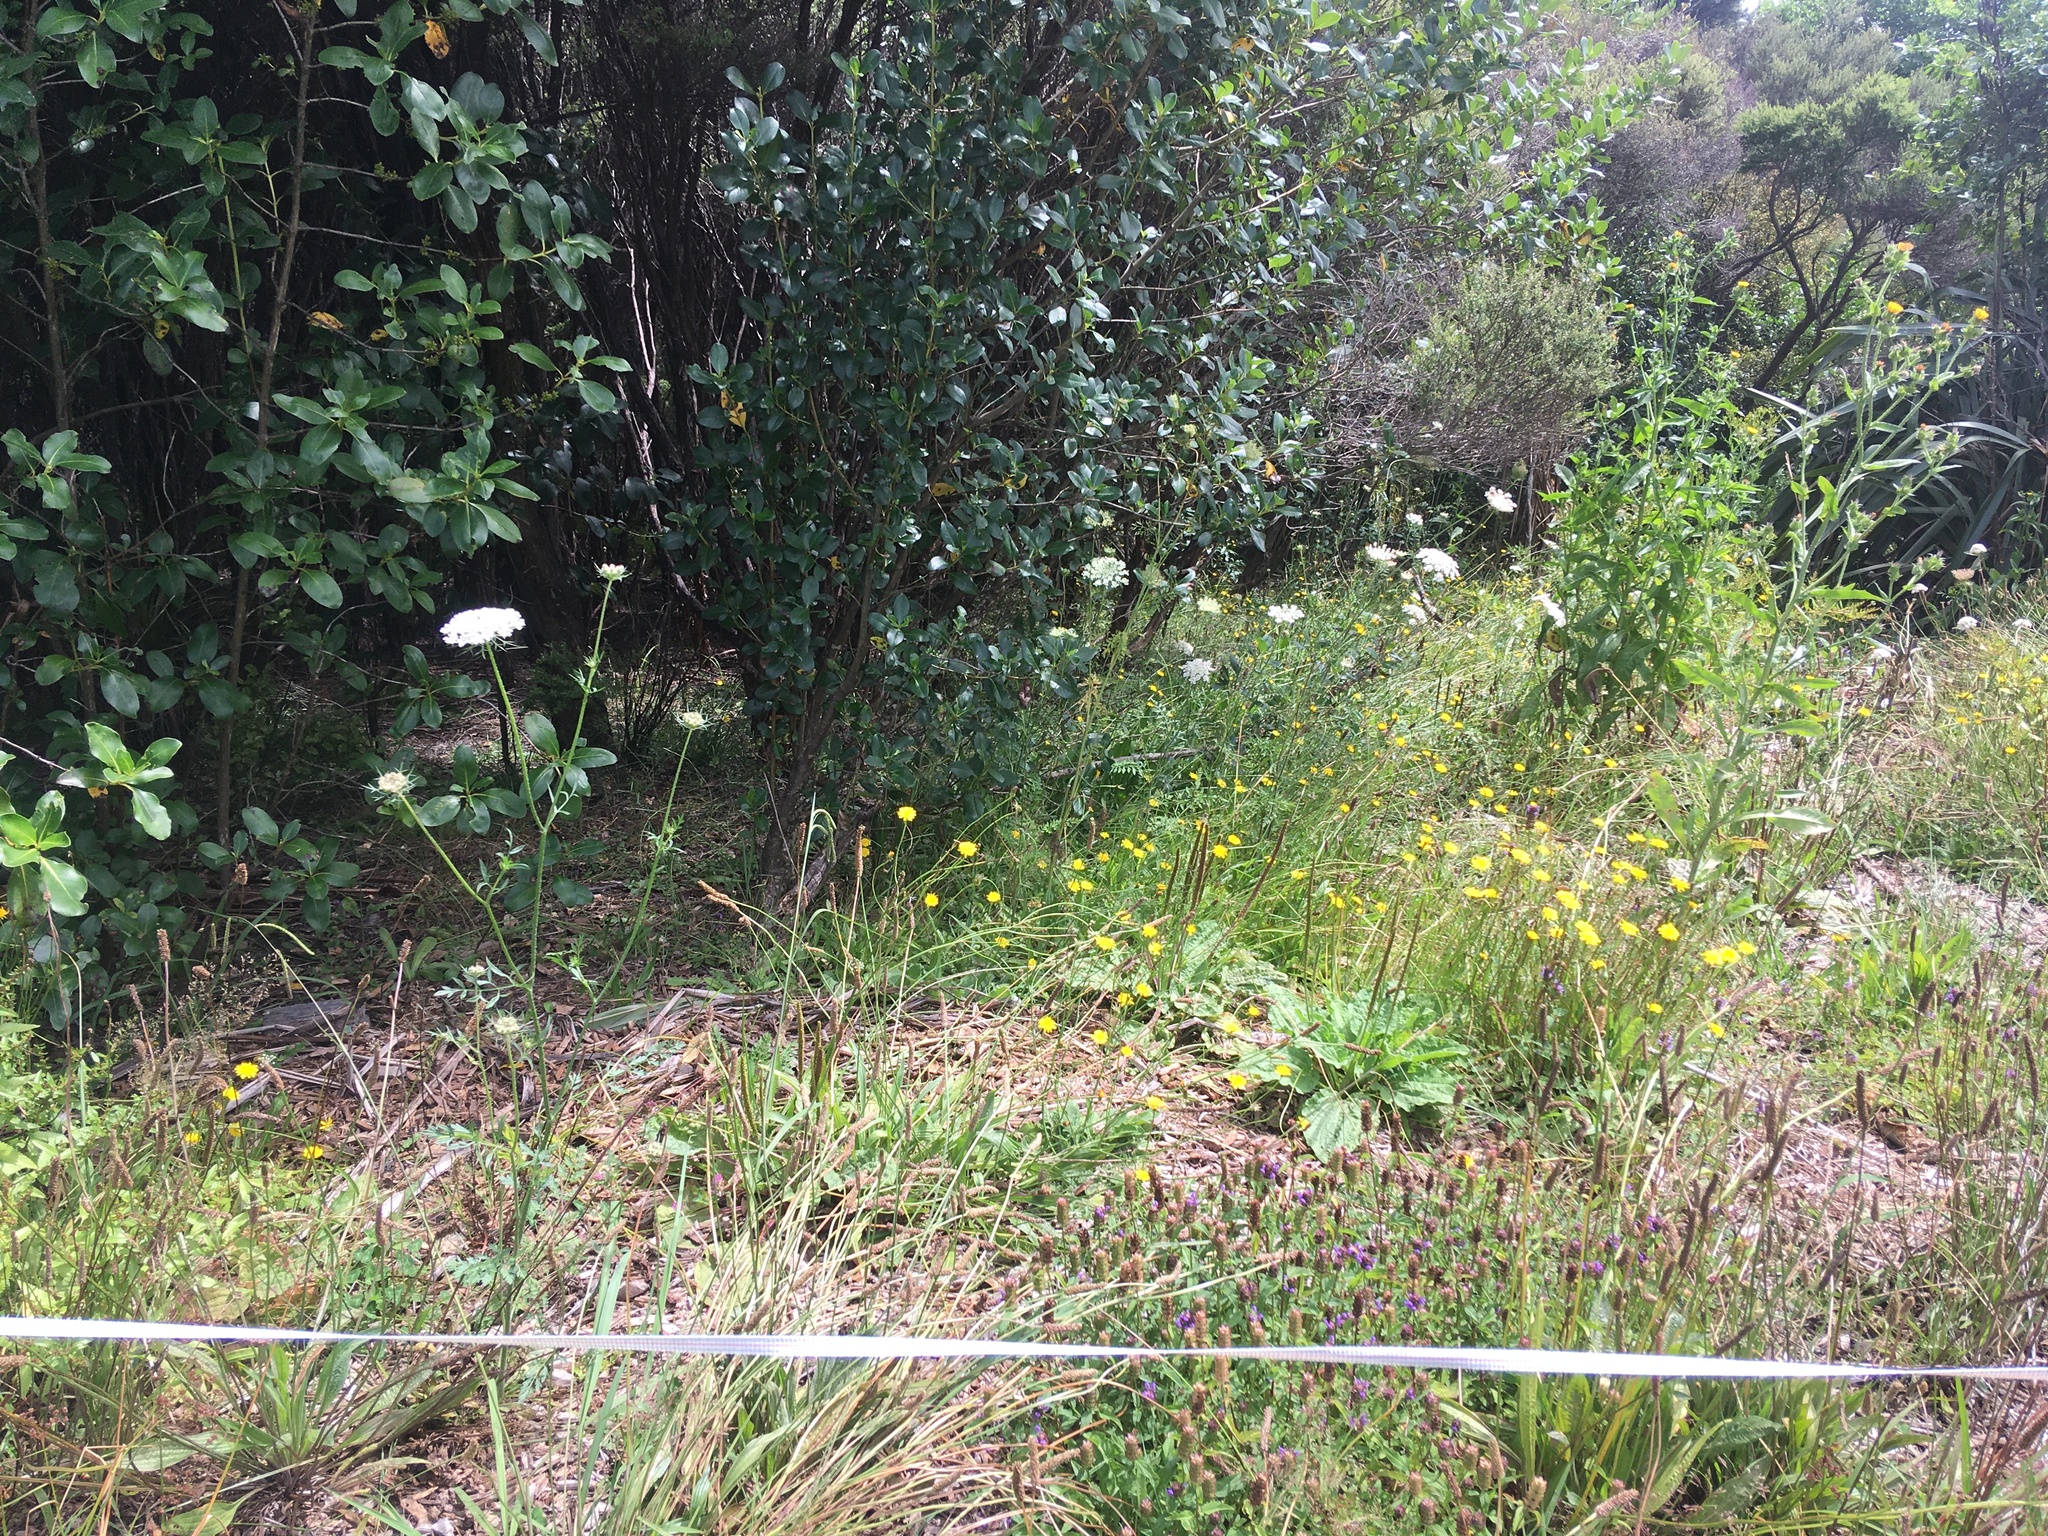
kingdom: Plantae
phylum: Tracheophyta
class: Magnoliopsida
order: Lamiales
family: Lamiaceae
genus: Prunella
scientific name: Prunella vulgaris
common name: Heal-all
